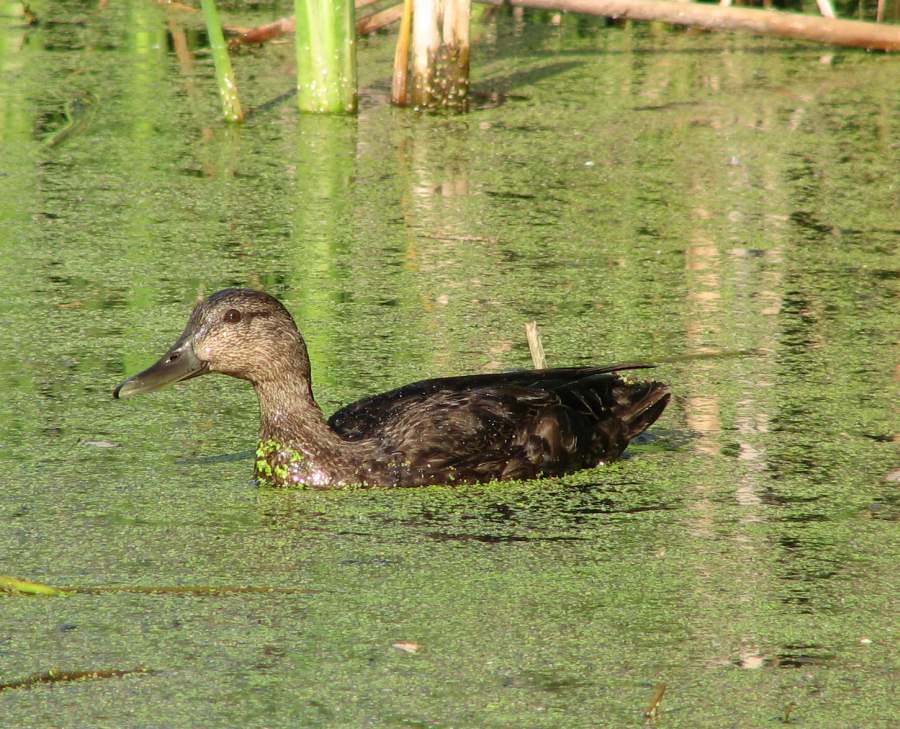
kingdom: Animalia
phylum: Chordata
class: Aves
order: Anseriformes
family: Anatidae
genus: Anas
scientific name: Anas rubripes
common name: American black duck
